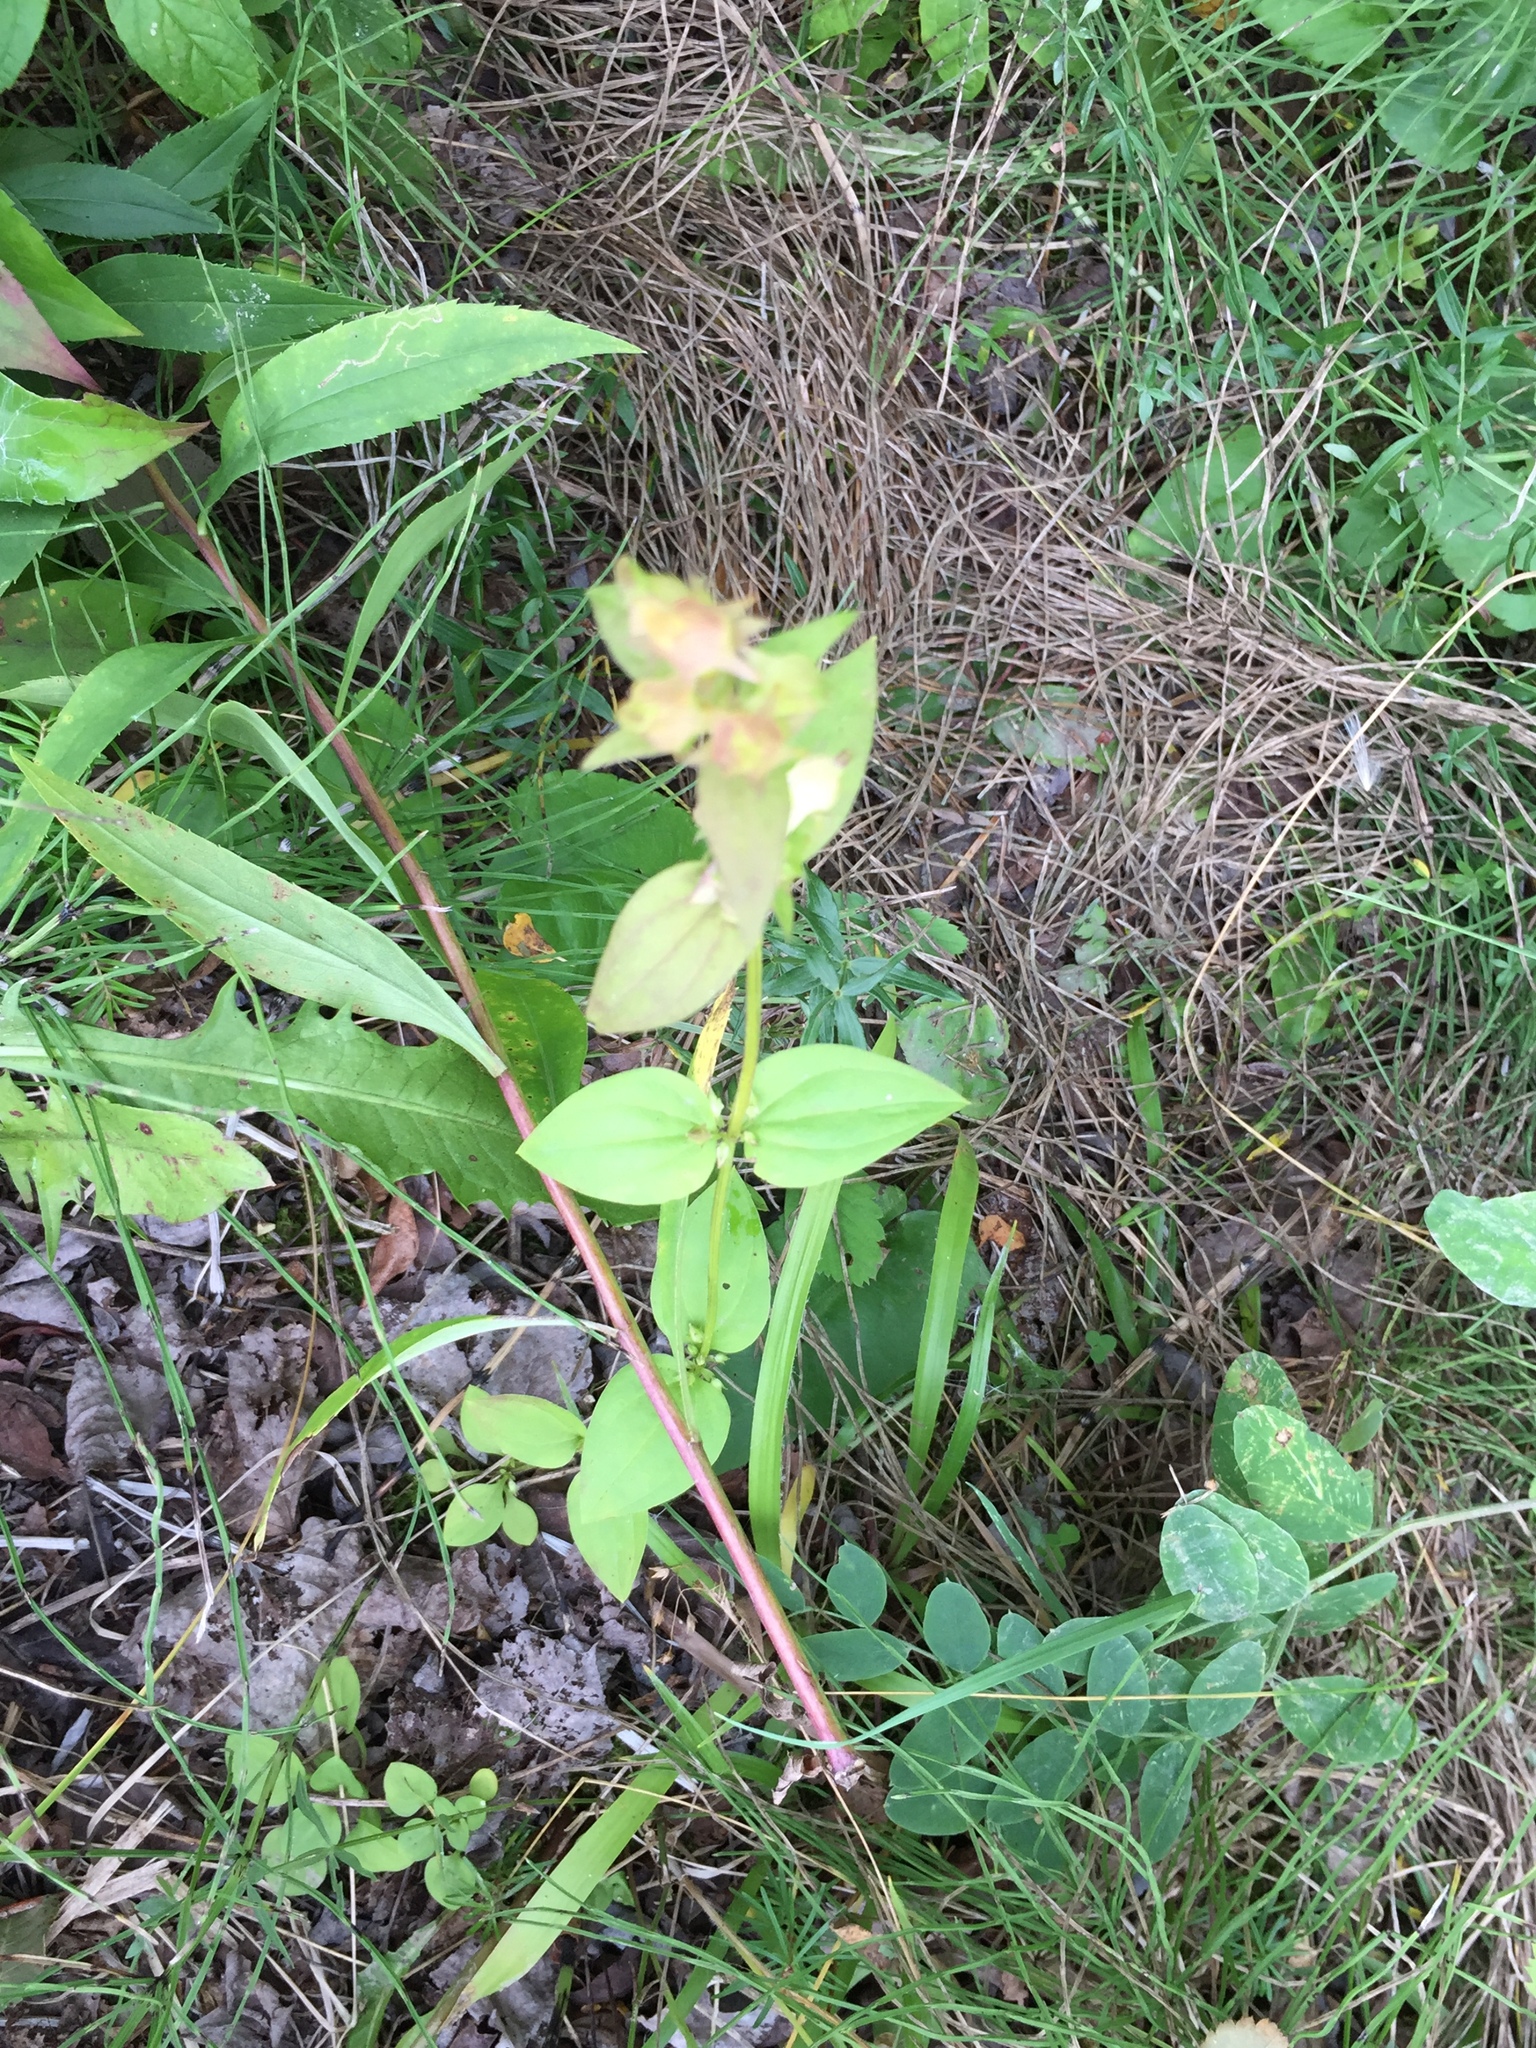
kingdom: Plantae
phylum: Tracheophyta
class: Magnoliopsida
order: Gentianales
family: Gentianaceae
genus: Halenia
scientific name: Halenia deflexa
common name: American spurred gentian
